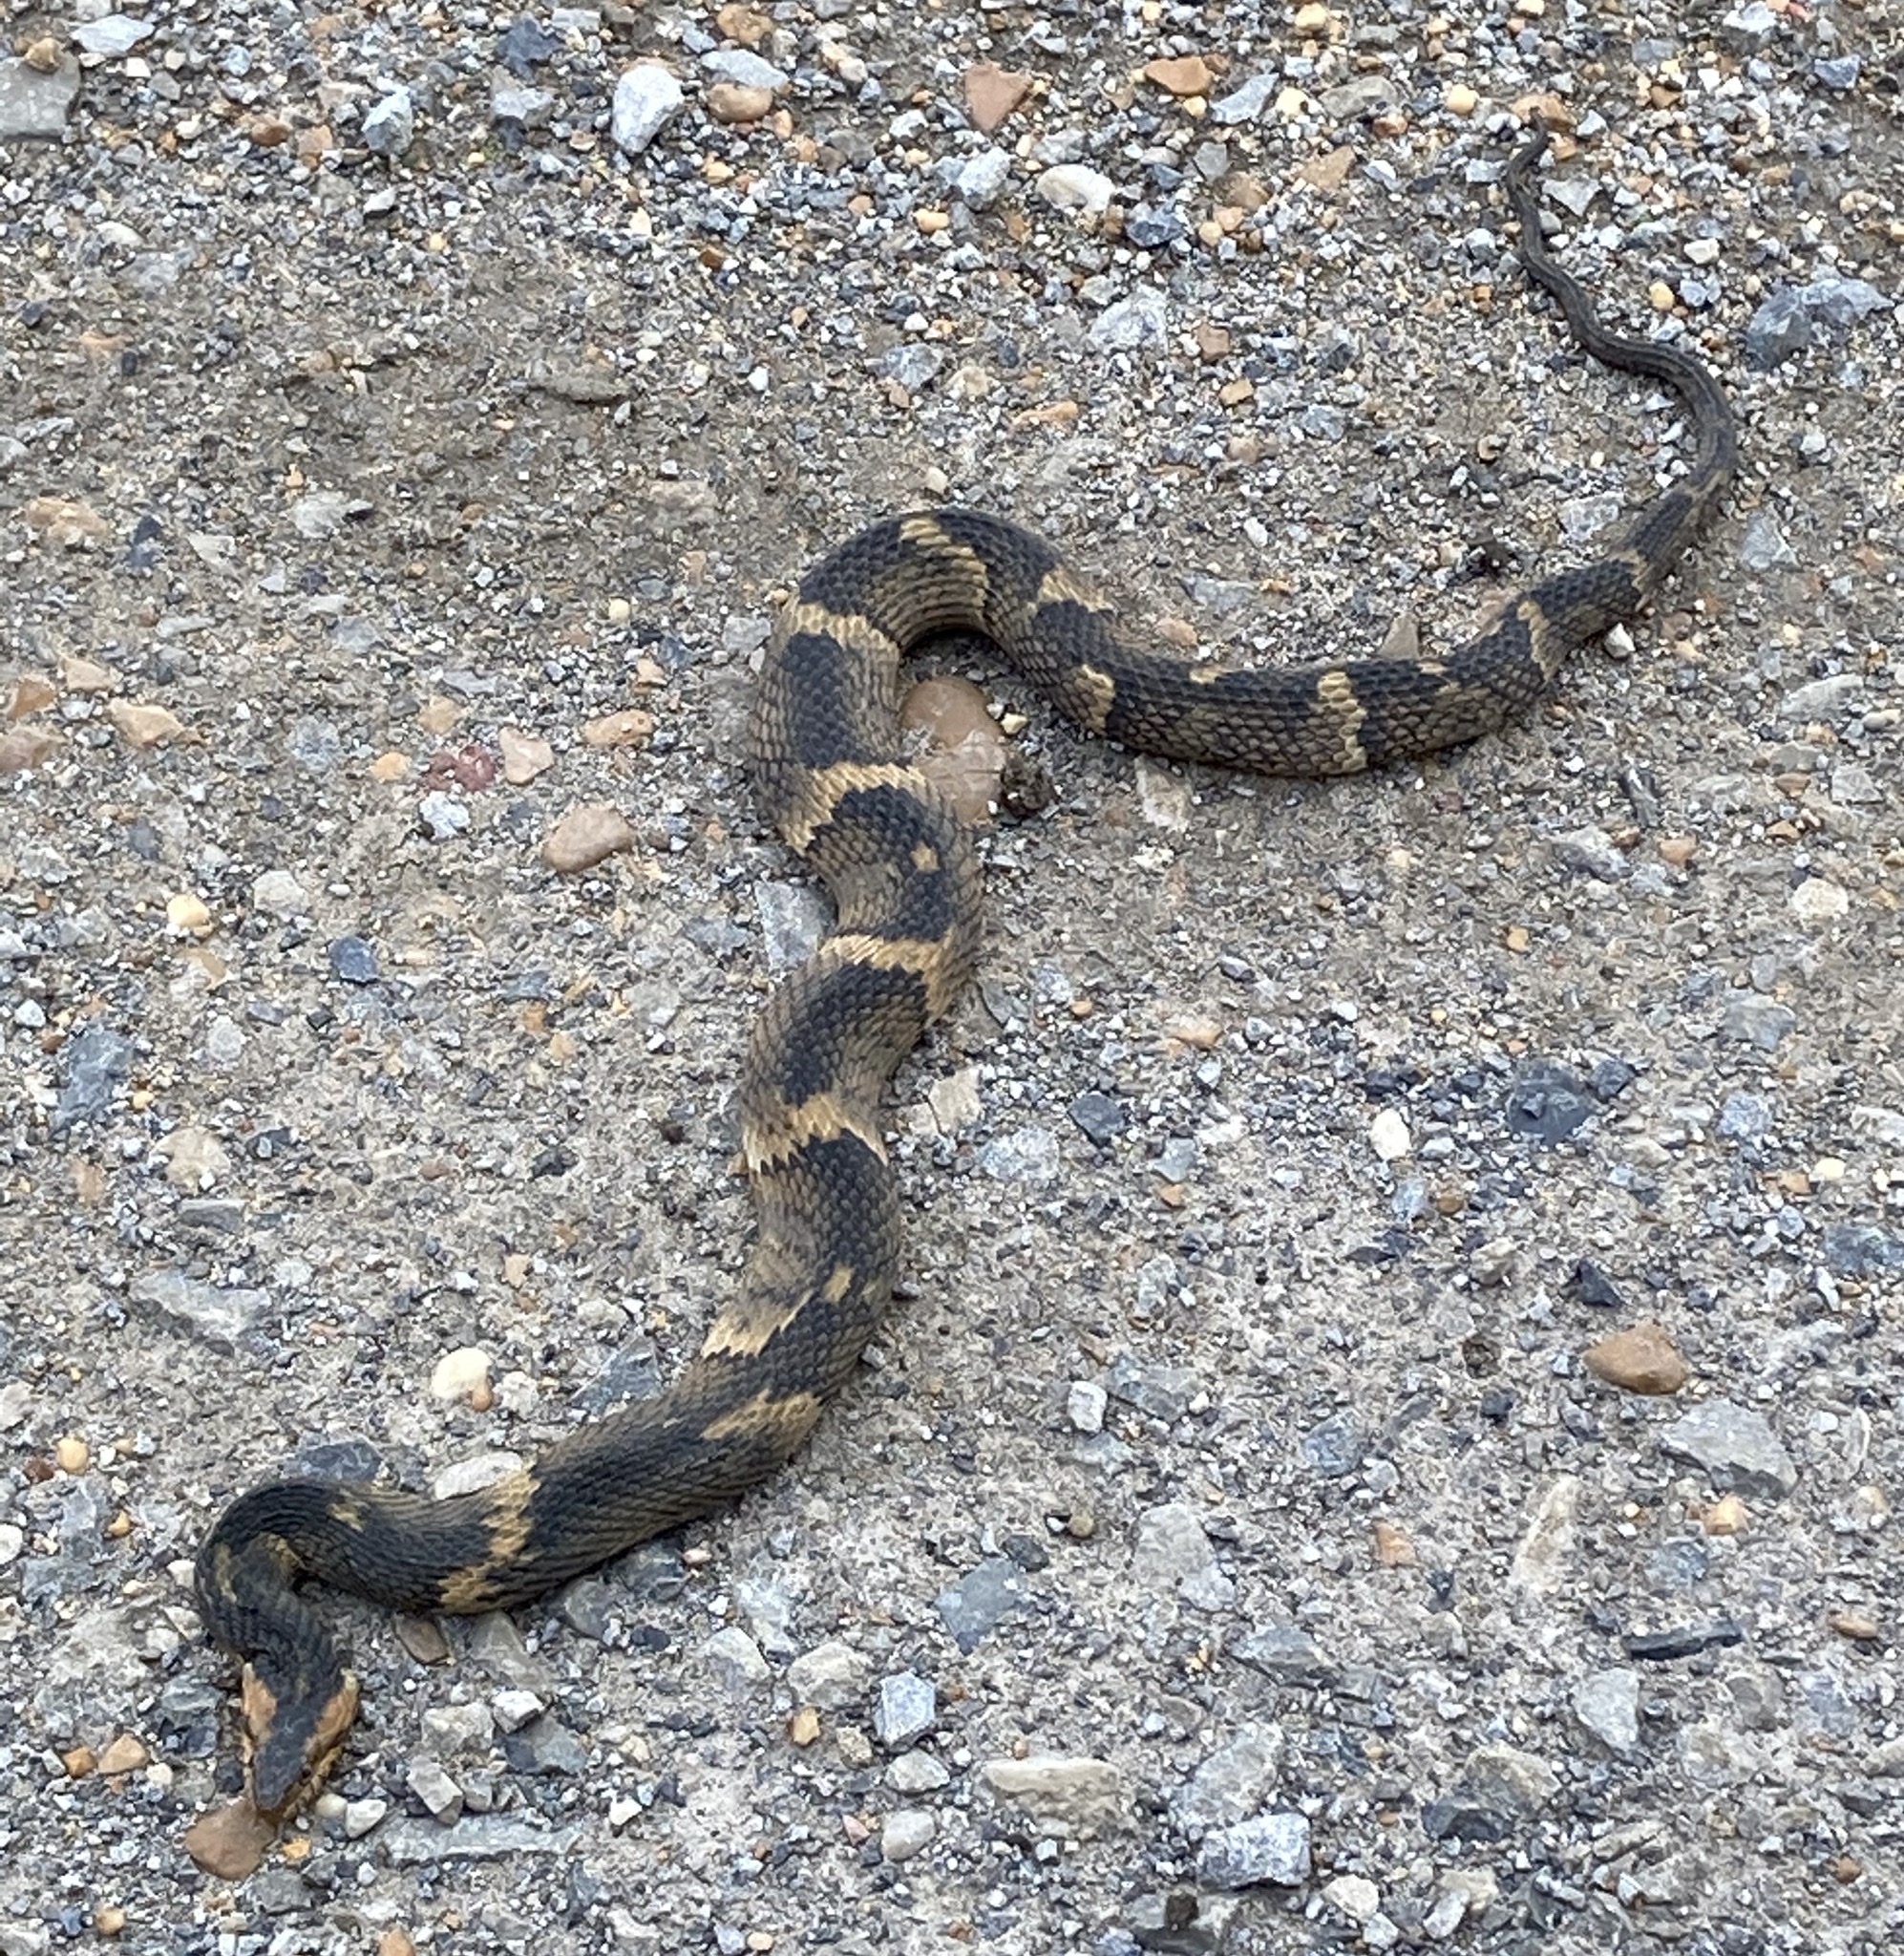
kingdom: Animalia
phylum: Chordata
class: Squamata
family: Colubridae
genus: Nerodia
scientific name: Nerodia fasciata
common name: Southern water snake
